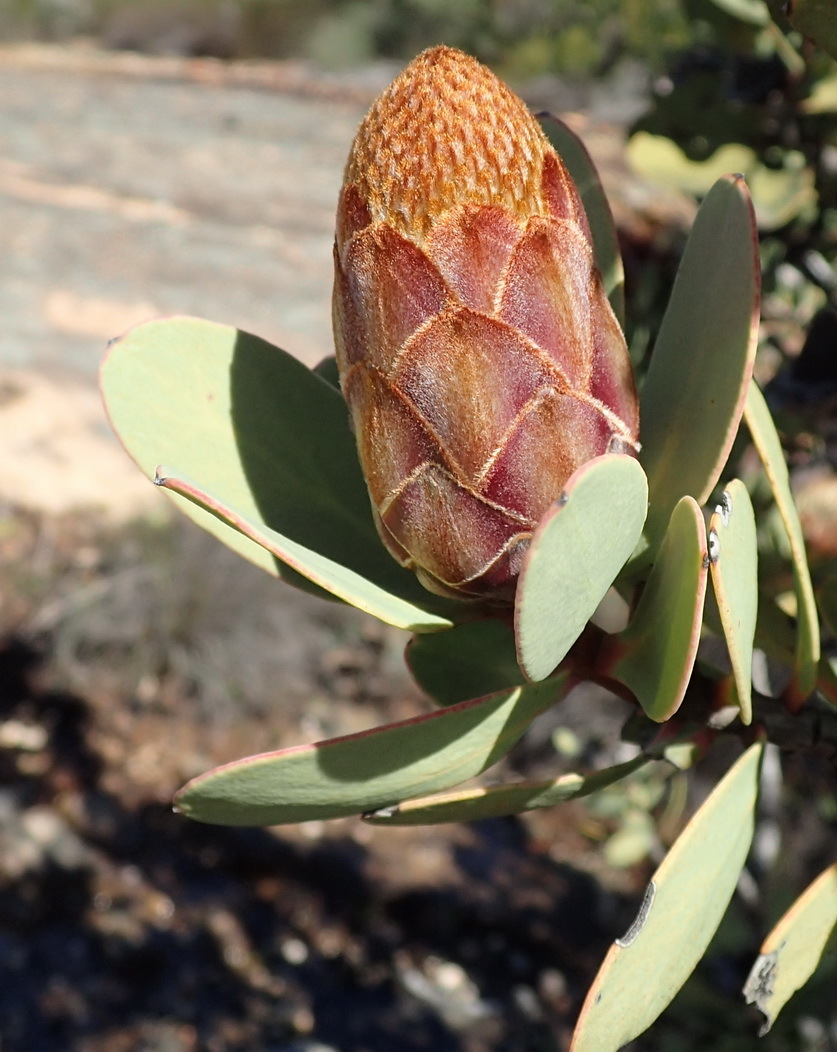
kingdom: Plantae
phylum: Tracheophyta
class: Magnoliopsida
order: Proteales
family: Proteaceae
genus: Protea
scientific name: Protea glabra
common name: Chestnut sugarbush
